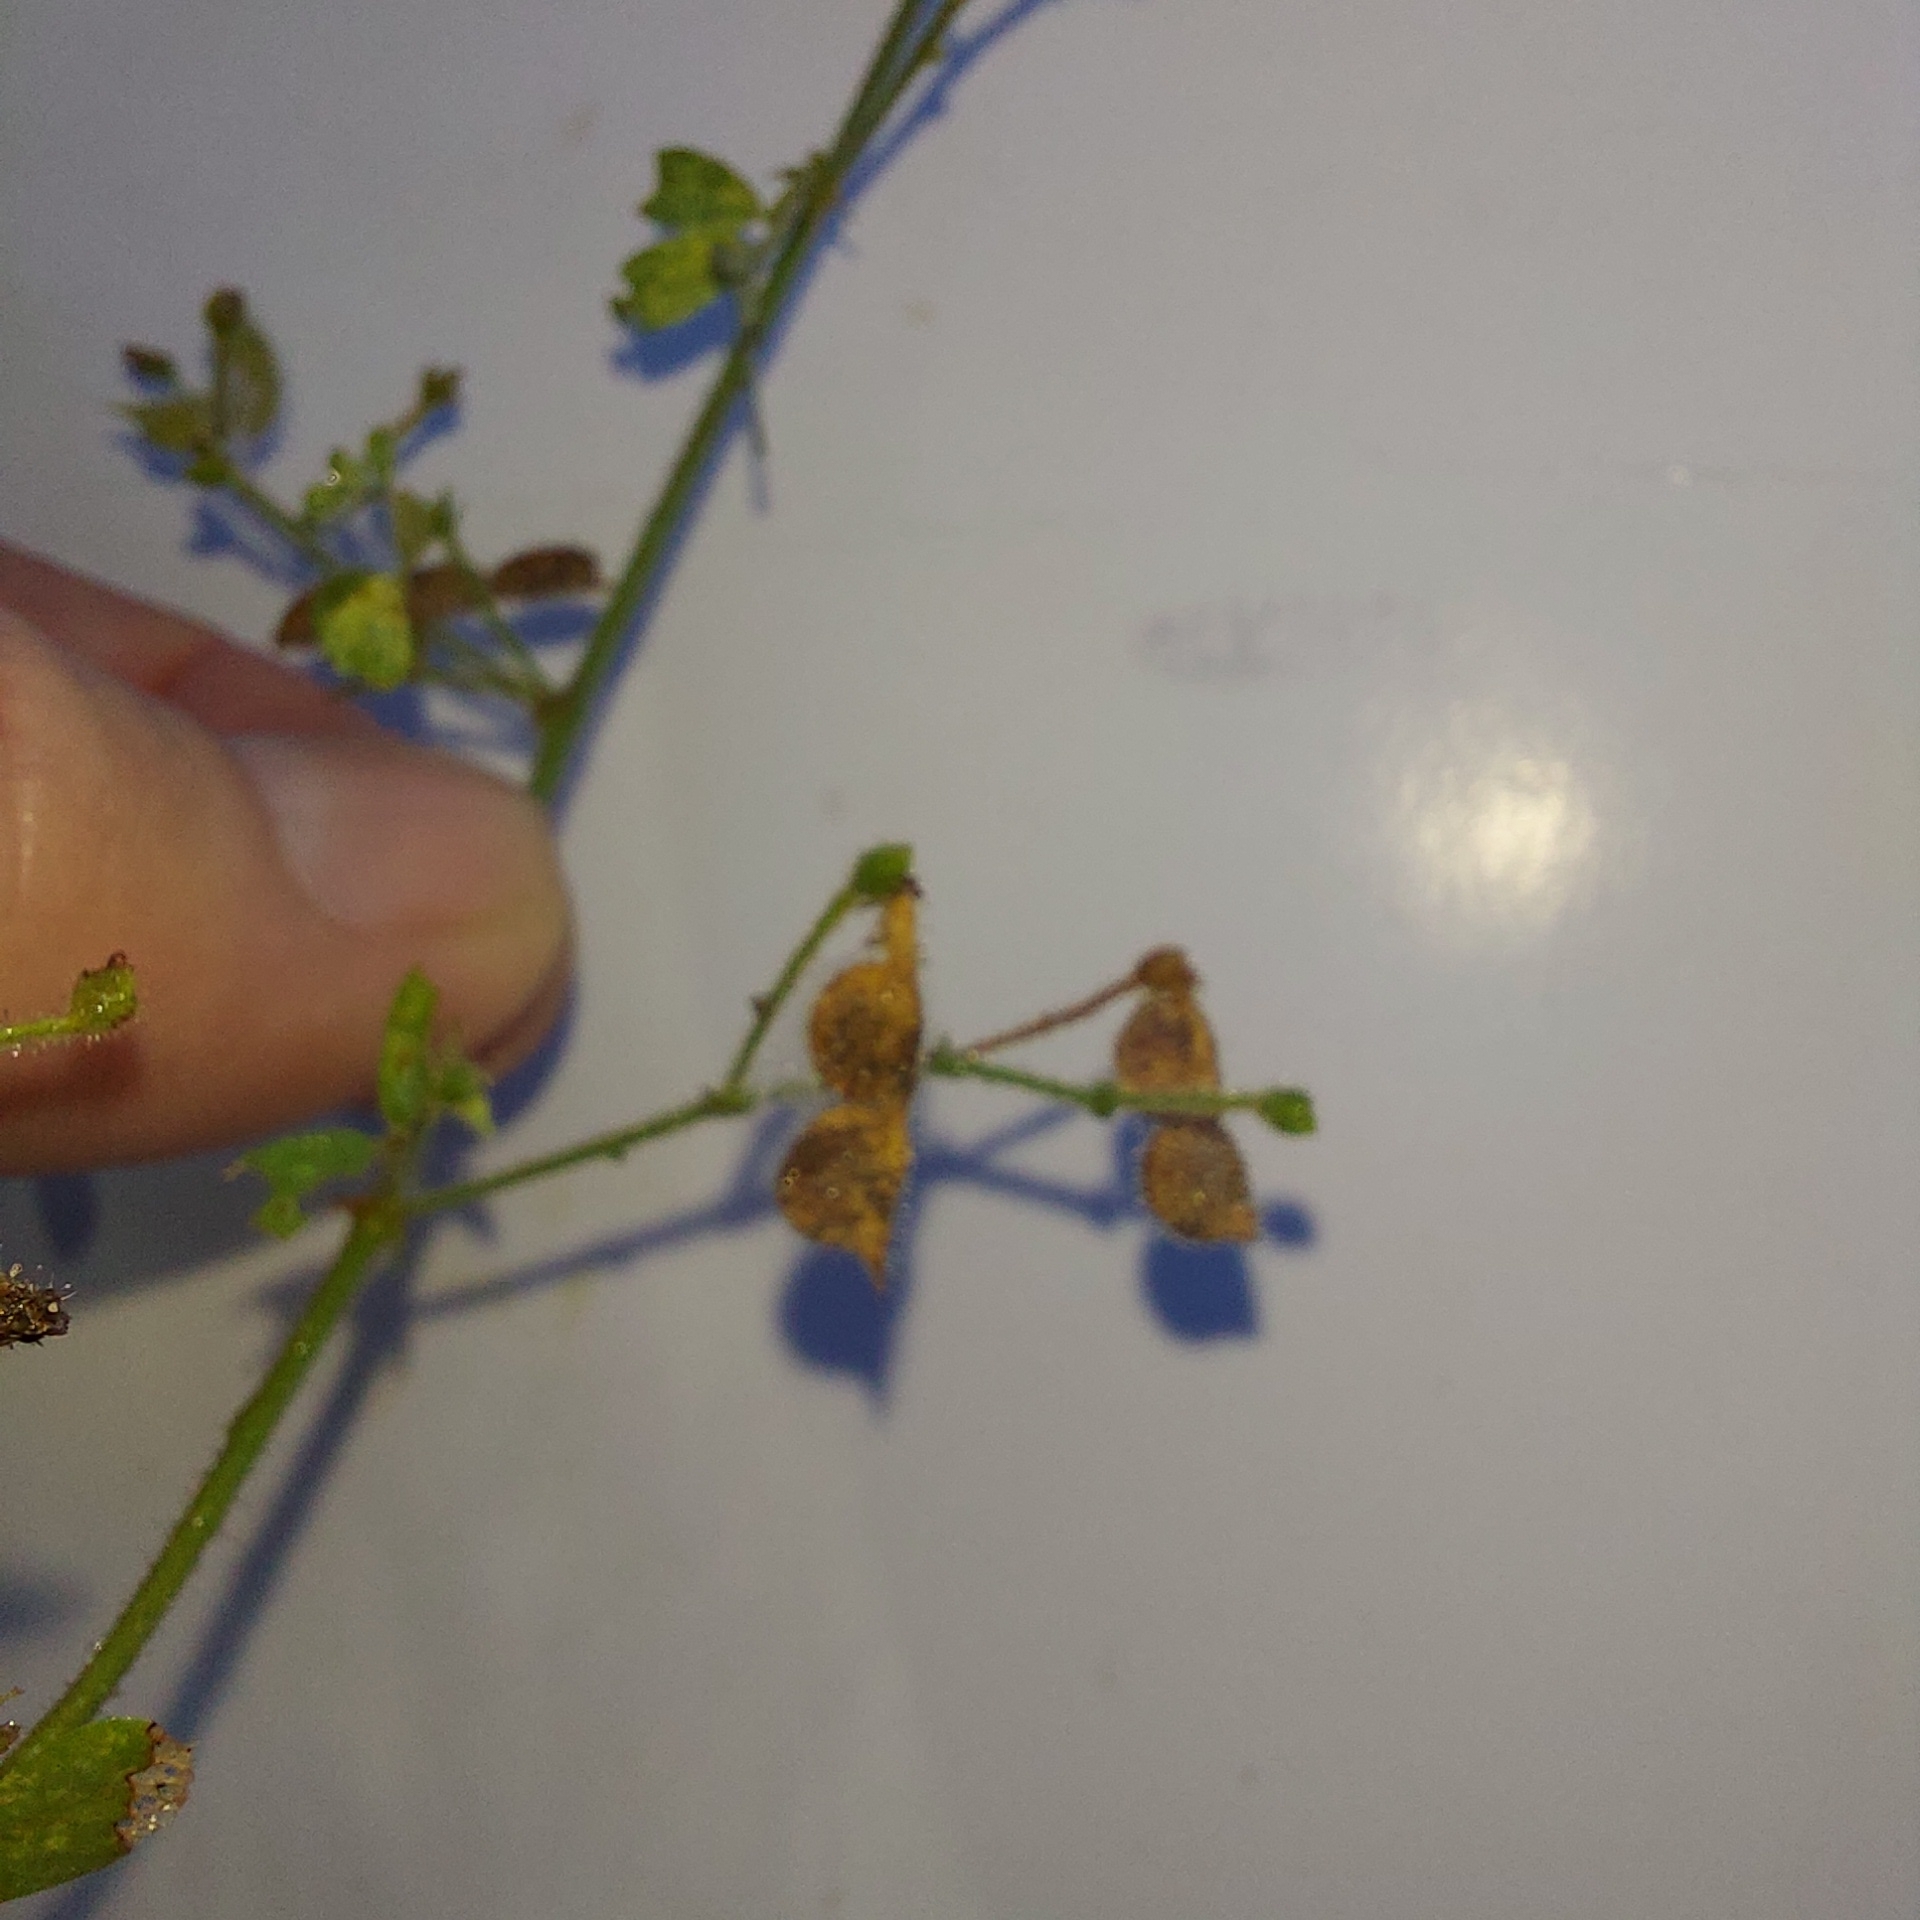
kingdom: Plantae
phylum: Tracheophyta
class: Magnoliopsida
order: Fabales
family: Fabaceae
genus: Ctenodon
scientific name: Ctenodon viscidulus
